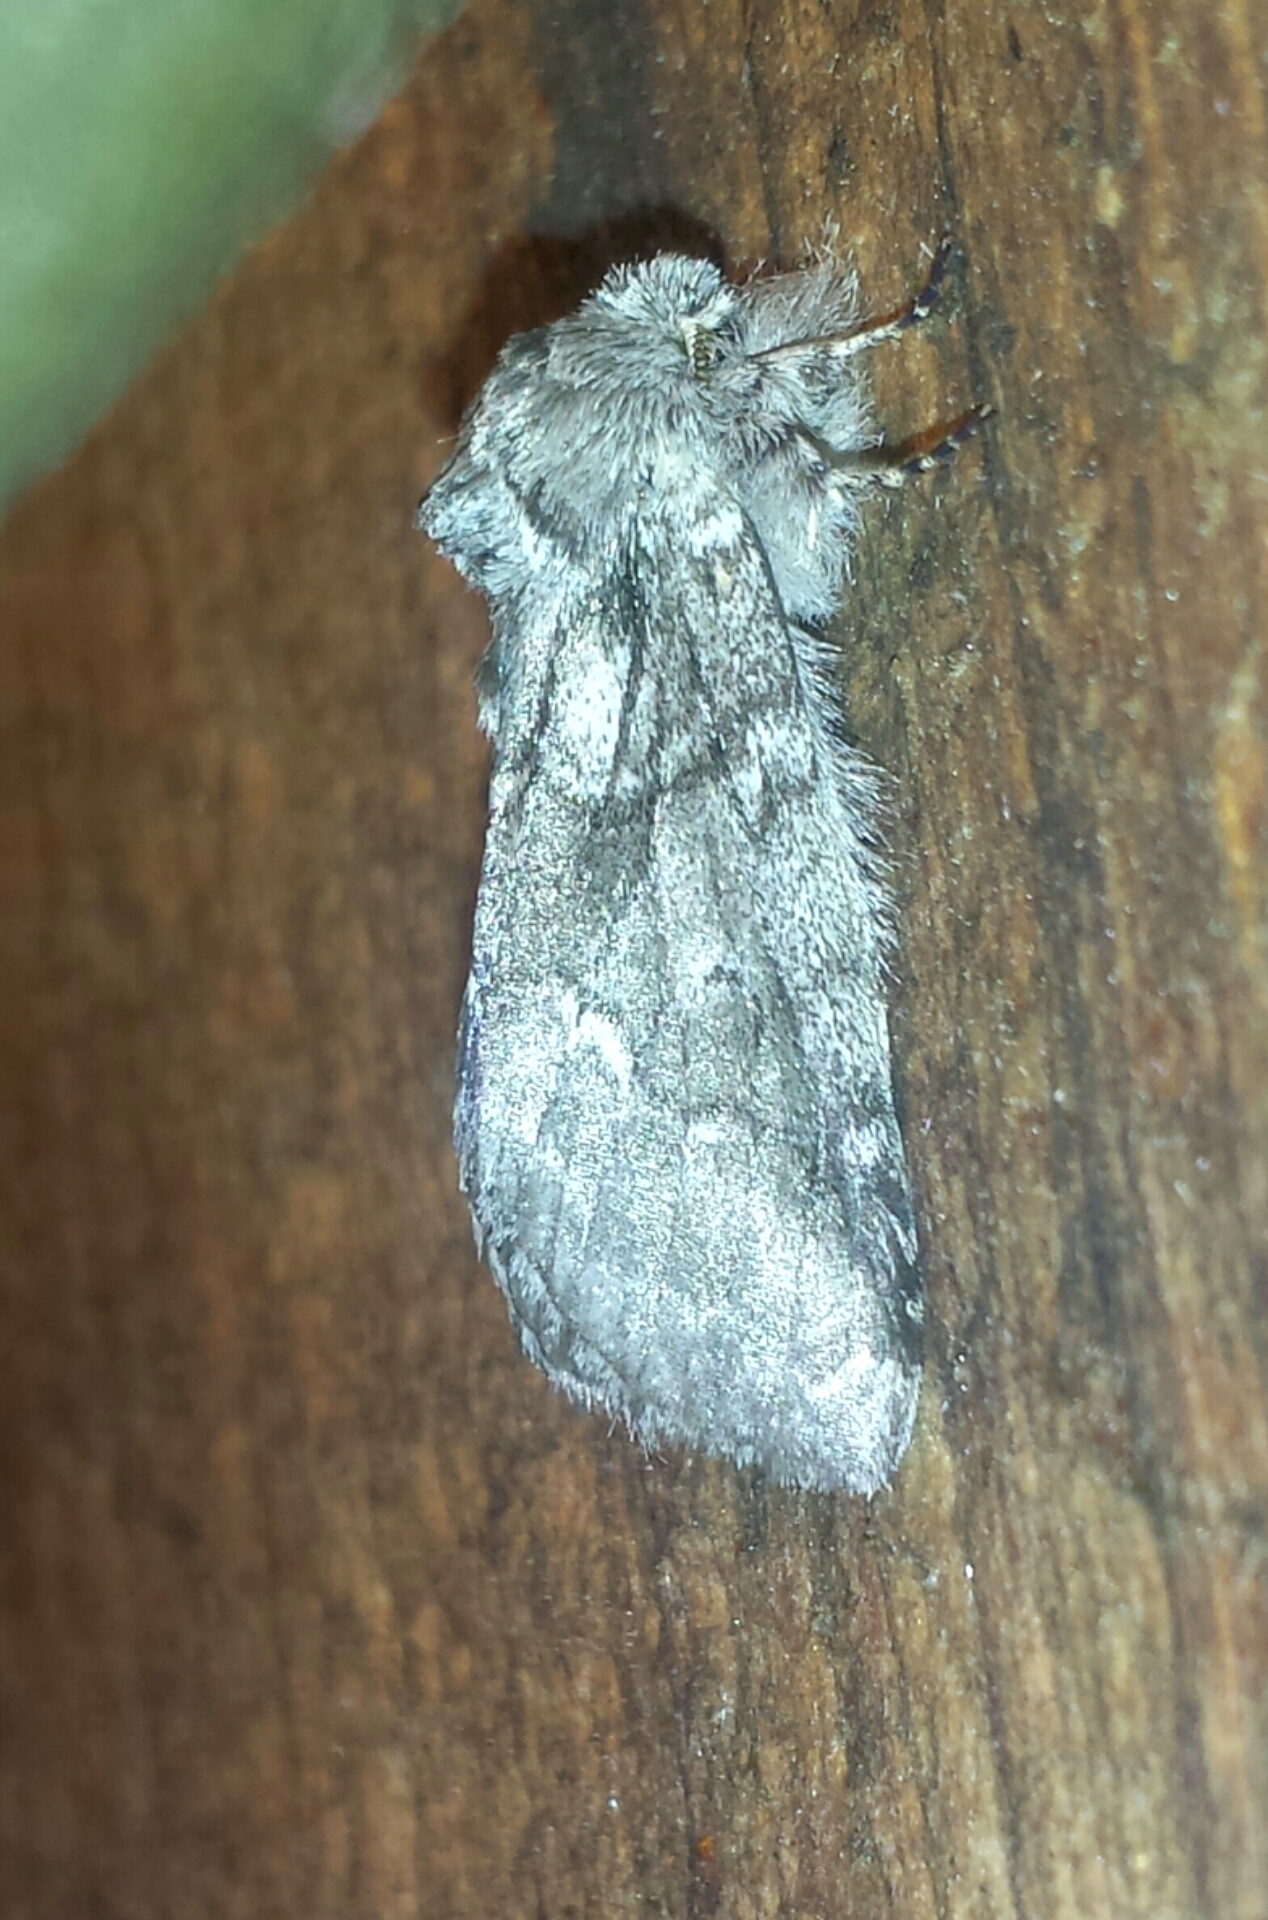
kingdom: Animalia
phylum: Arthropoda
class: Insecta
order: Lepidoptera
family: Notodontidae
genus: Lochmaeus
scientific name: Lochmaeus bilineata
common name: Double-lined prominent
